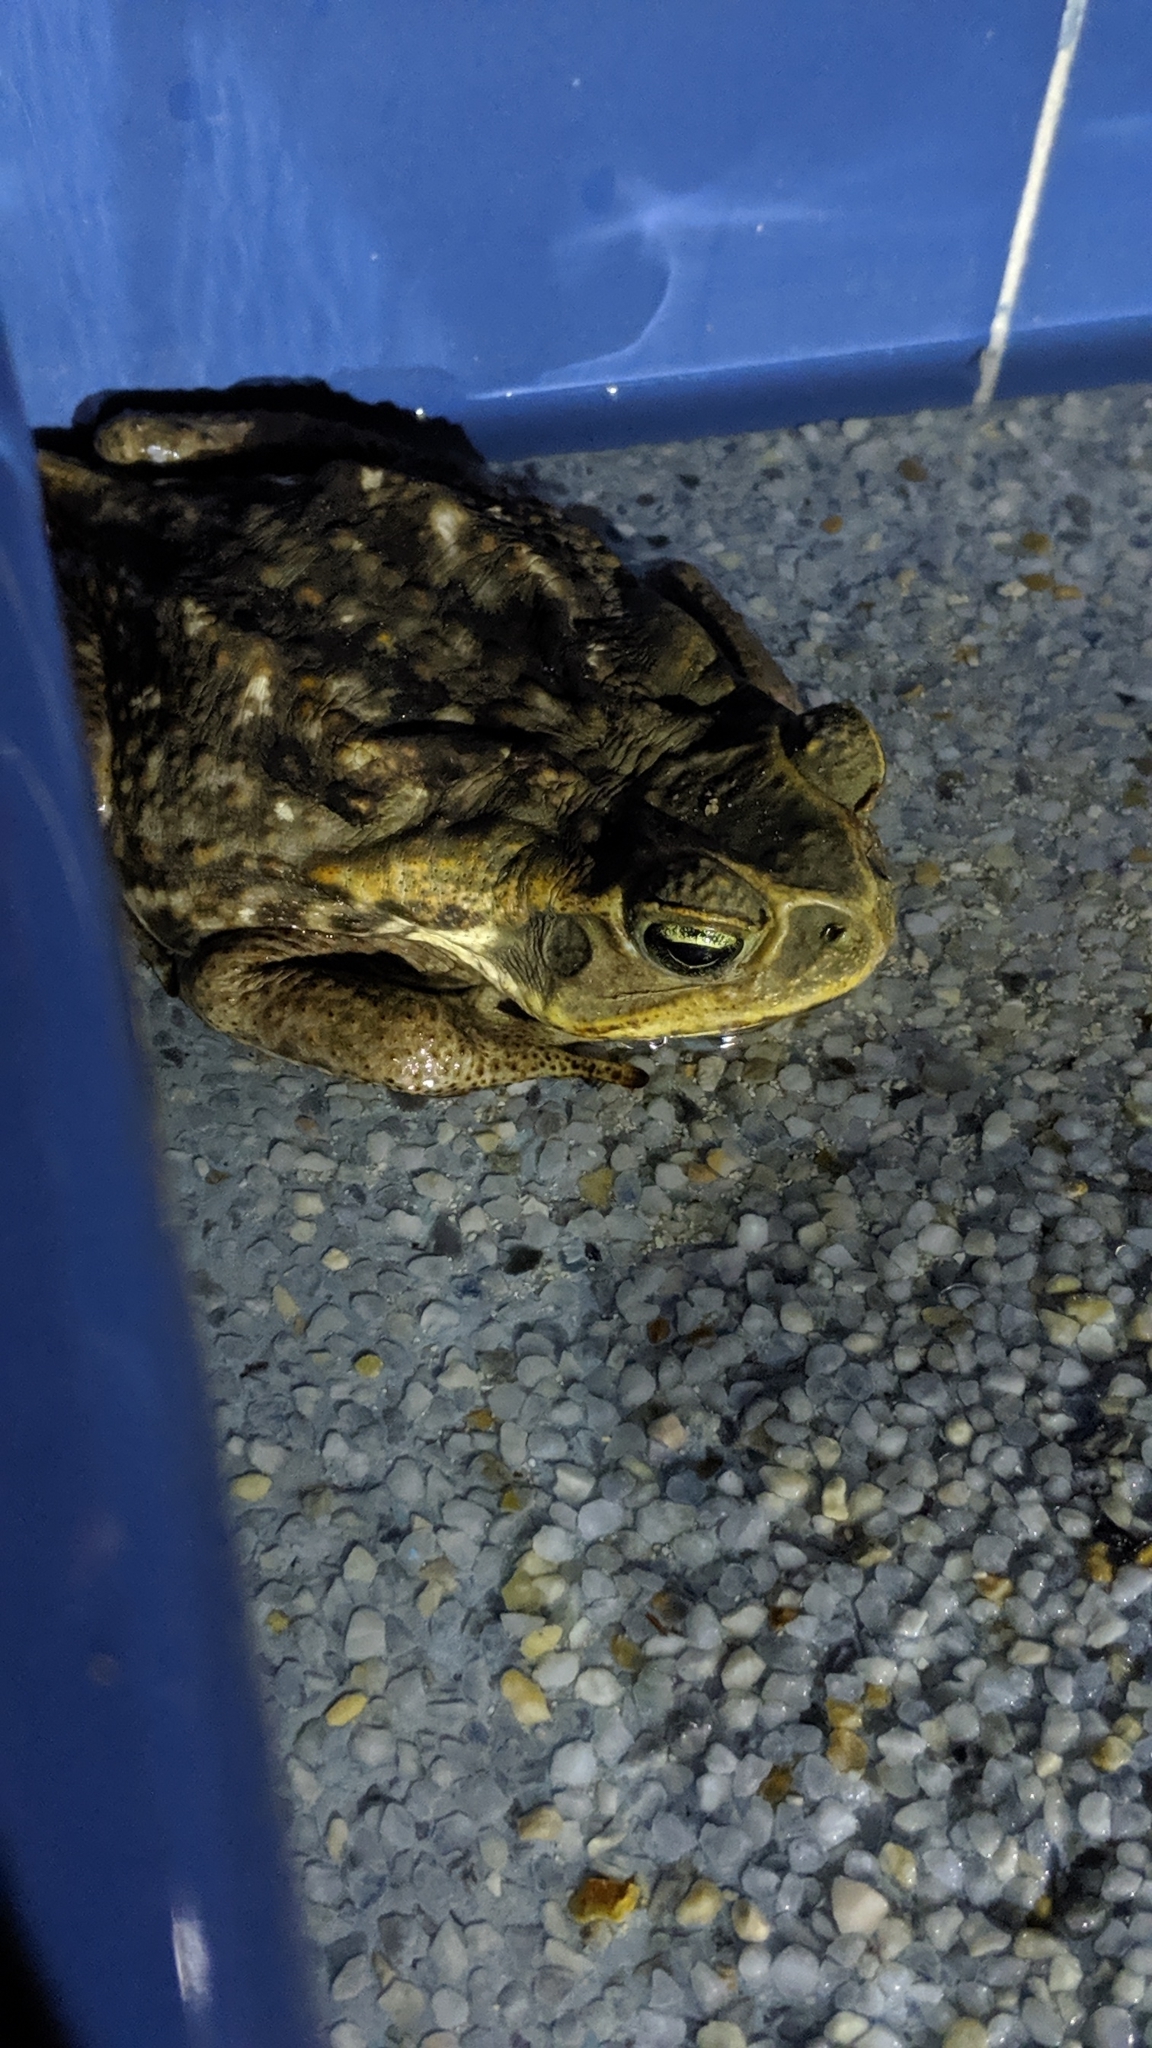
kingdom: Animalia
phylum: Chordata
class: Amphibia
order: Anura
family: Bufonidae
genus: Rhinella
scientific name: Rhinella marina
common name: Cane toad
